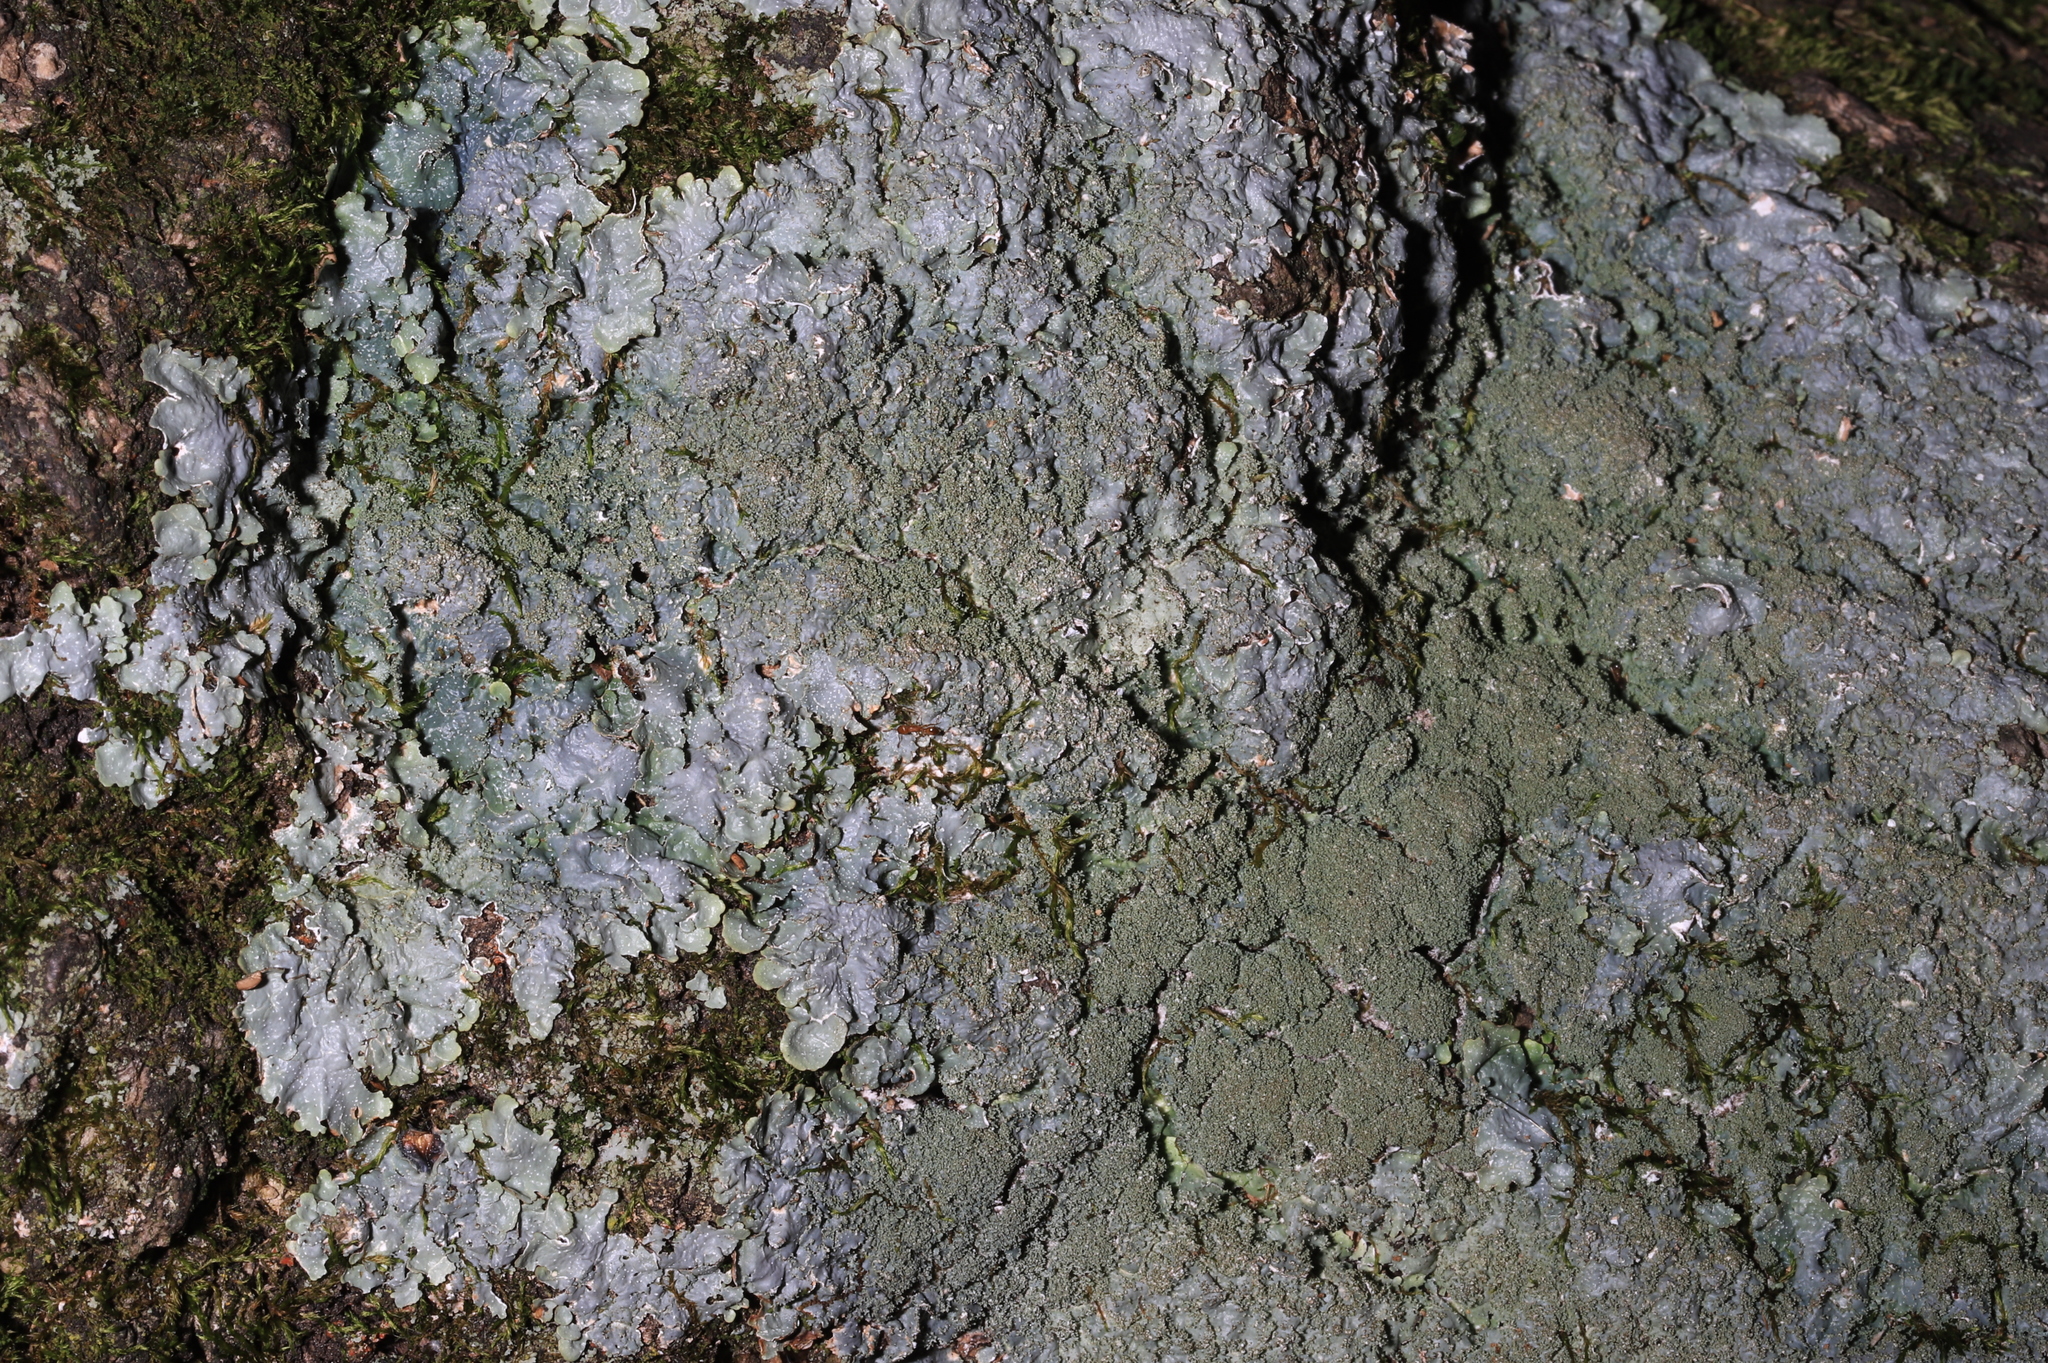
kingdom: Fungi
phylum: Ascomycota
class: Lecanoromycetes
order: Lecanorales
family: Parmeliaceae
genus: Punctelia
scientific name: Punctelia rudecta
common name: Rough speckled shield lichen
